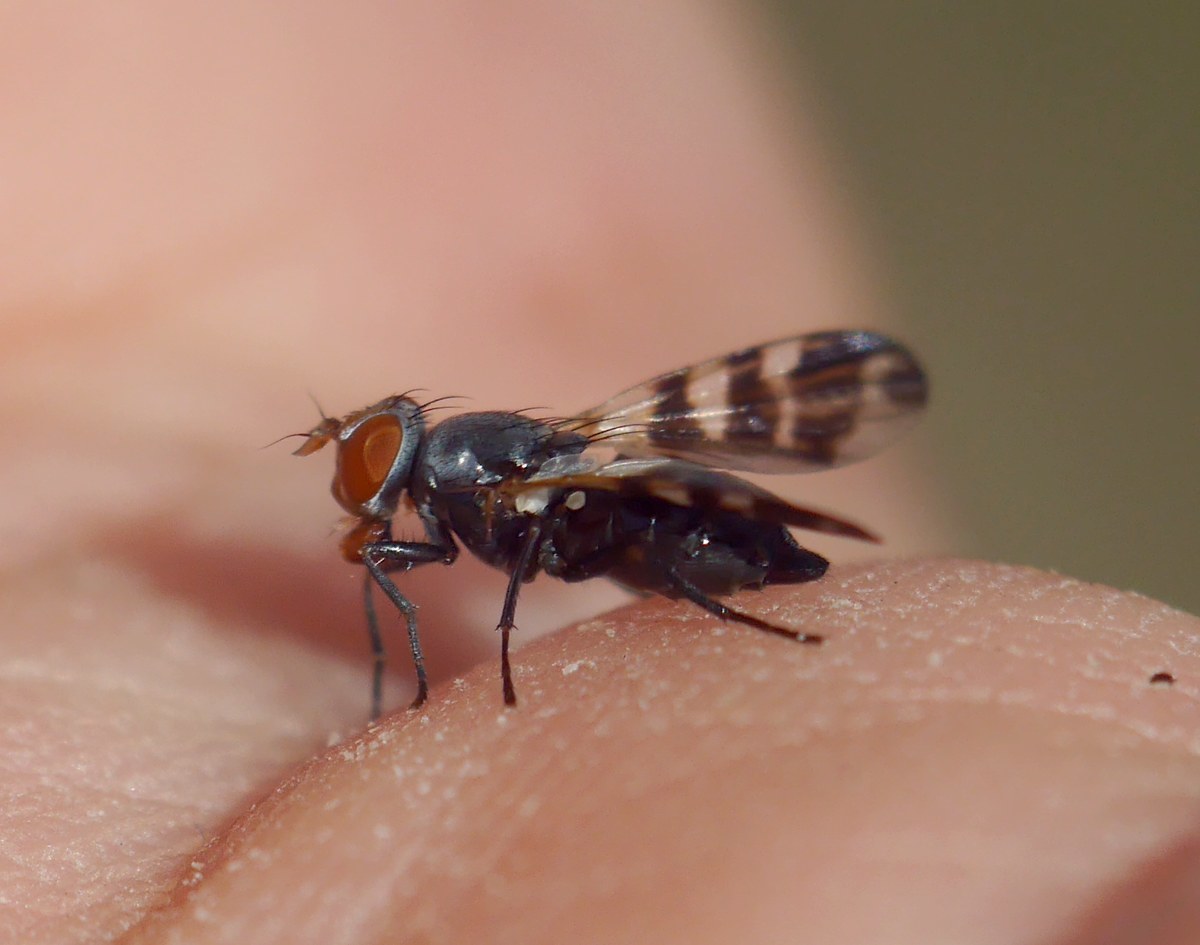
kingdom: Animalia
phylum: Arthropoda
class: Insecta
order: Diptera
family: Ulidiidae
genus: Ceroxys
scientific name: Ceroxys urticae
